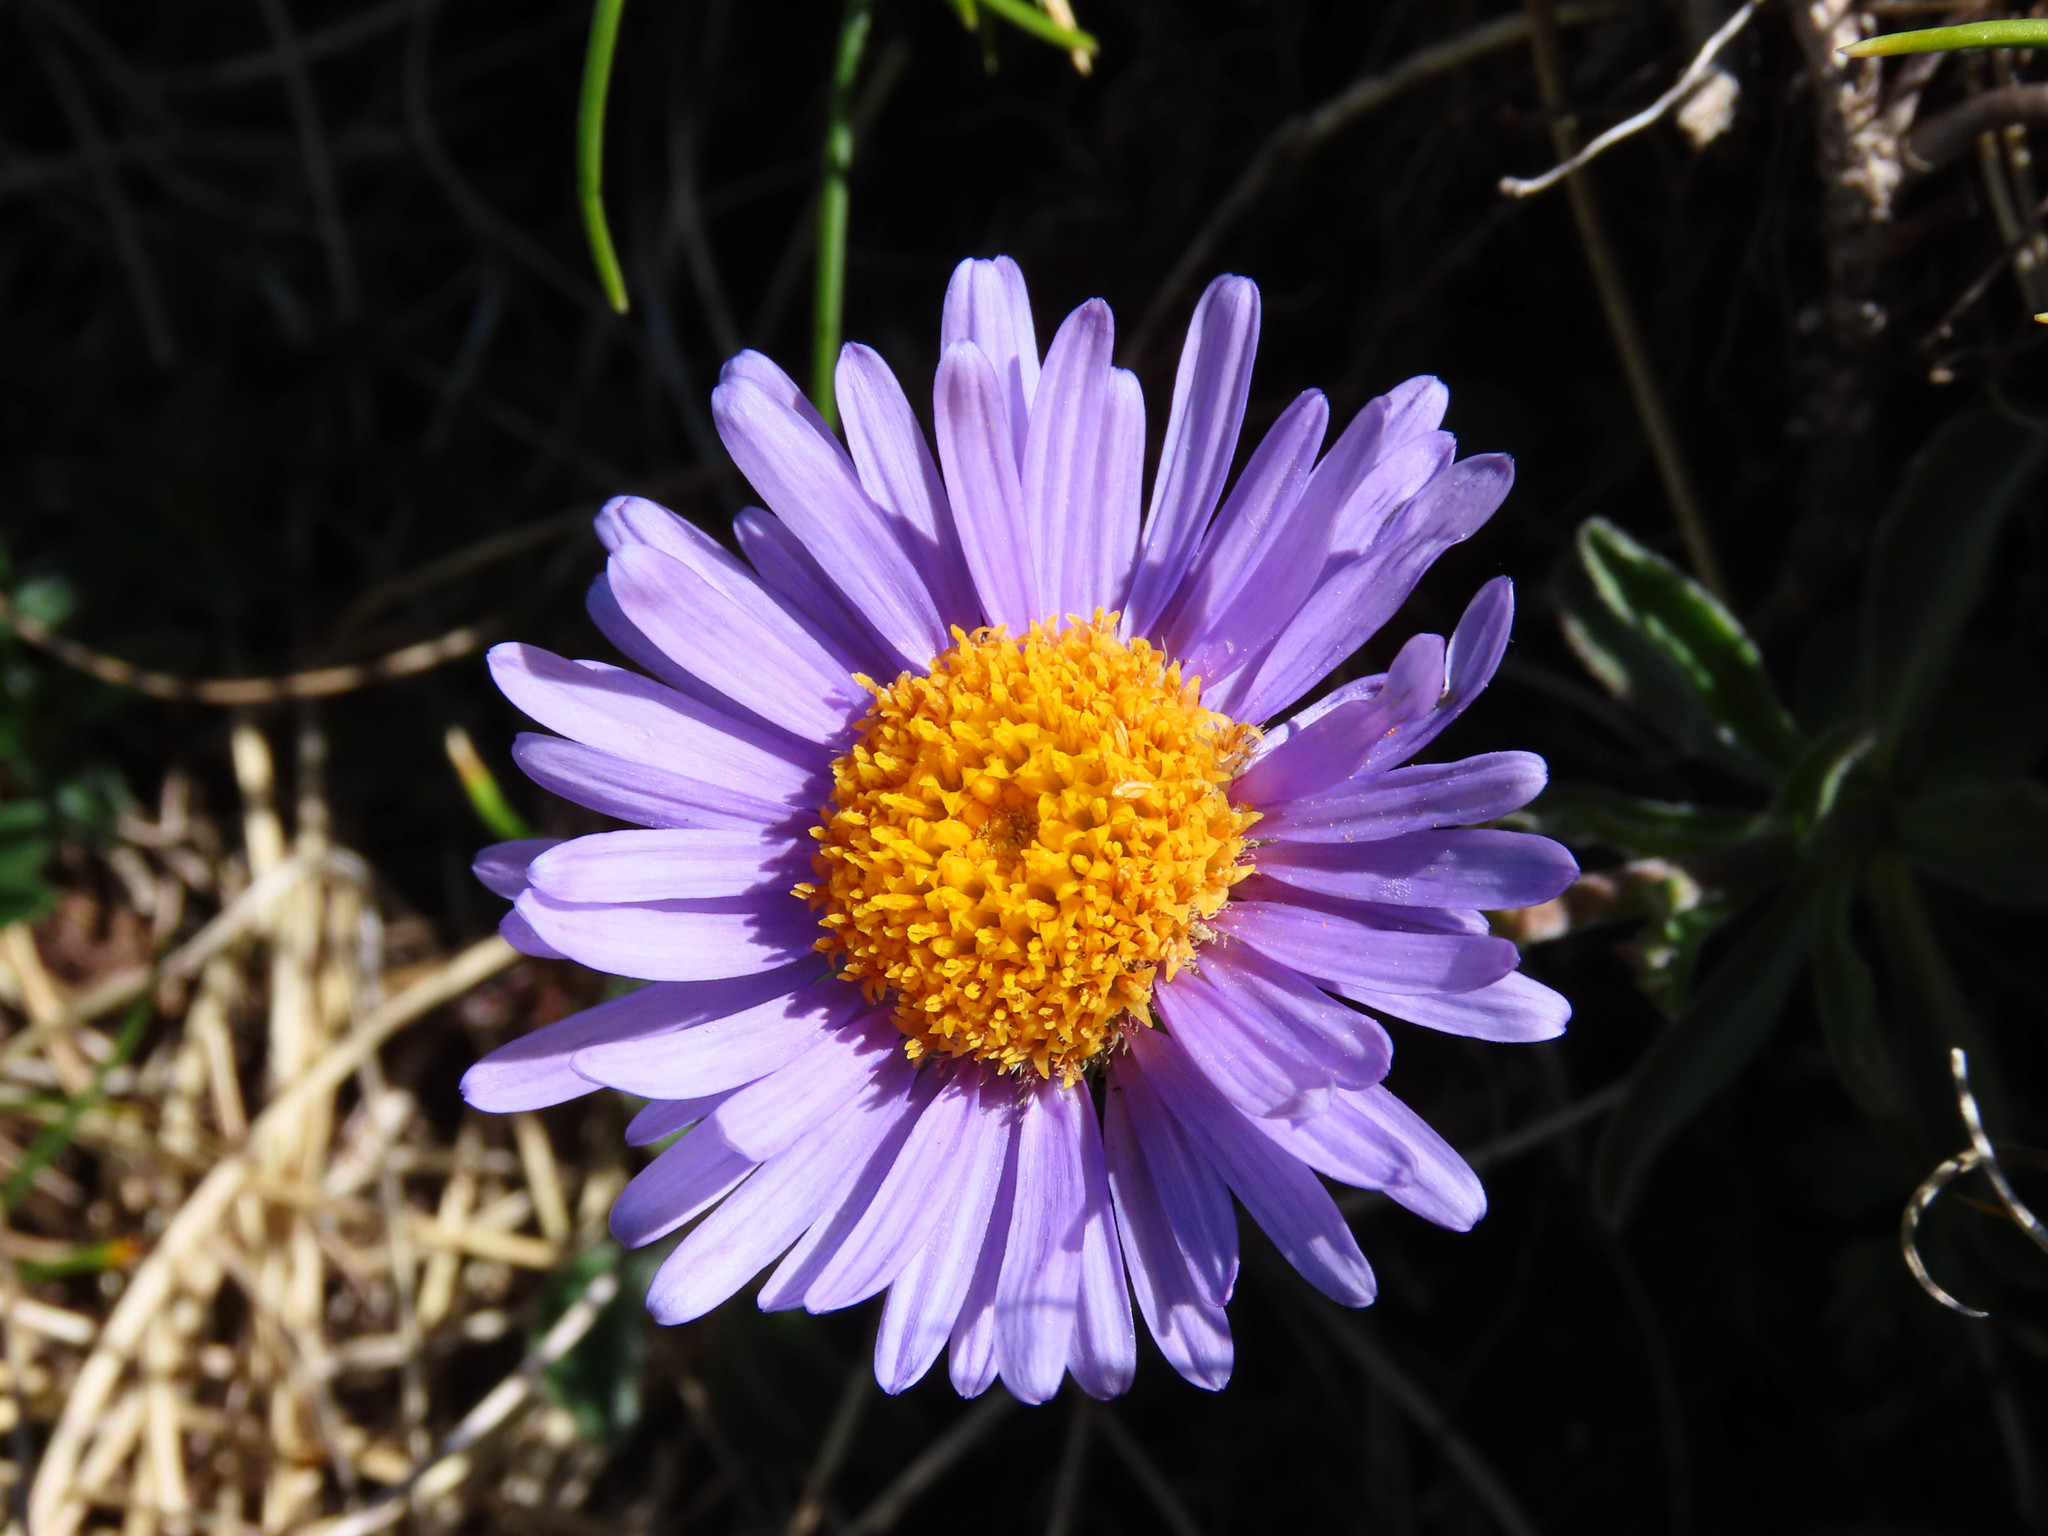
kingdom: Plantae
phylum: Tracheophyta
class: Magnoliopsida
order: Asterales
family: Asteraceae
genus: Aster
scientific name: Aster alpinus
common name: Alpine aster
